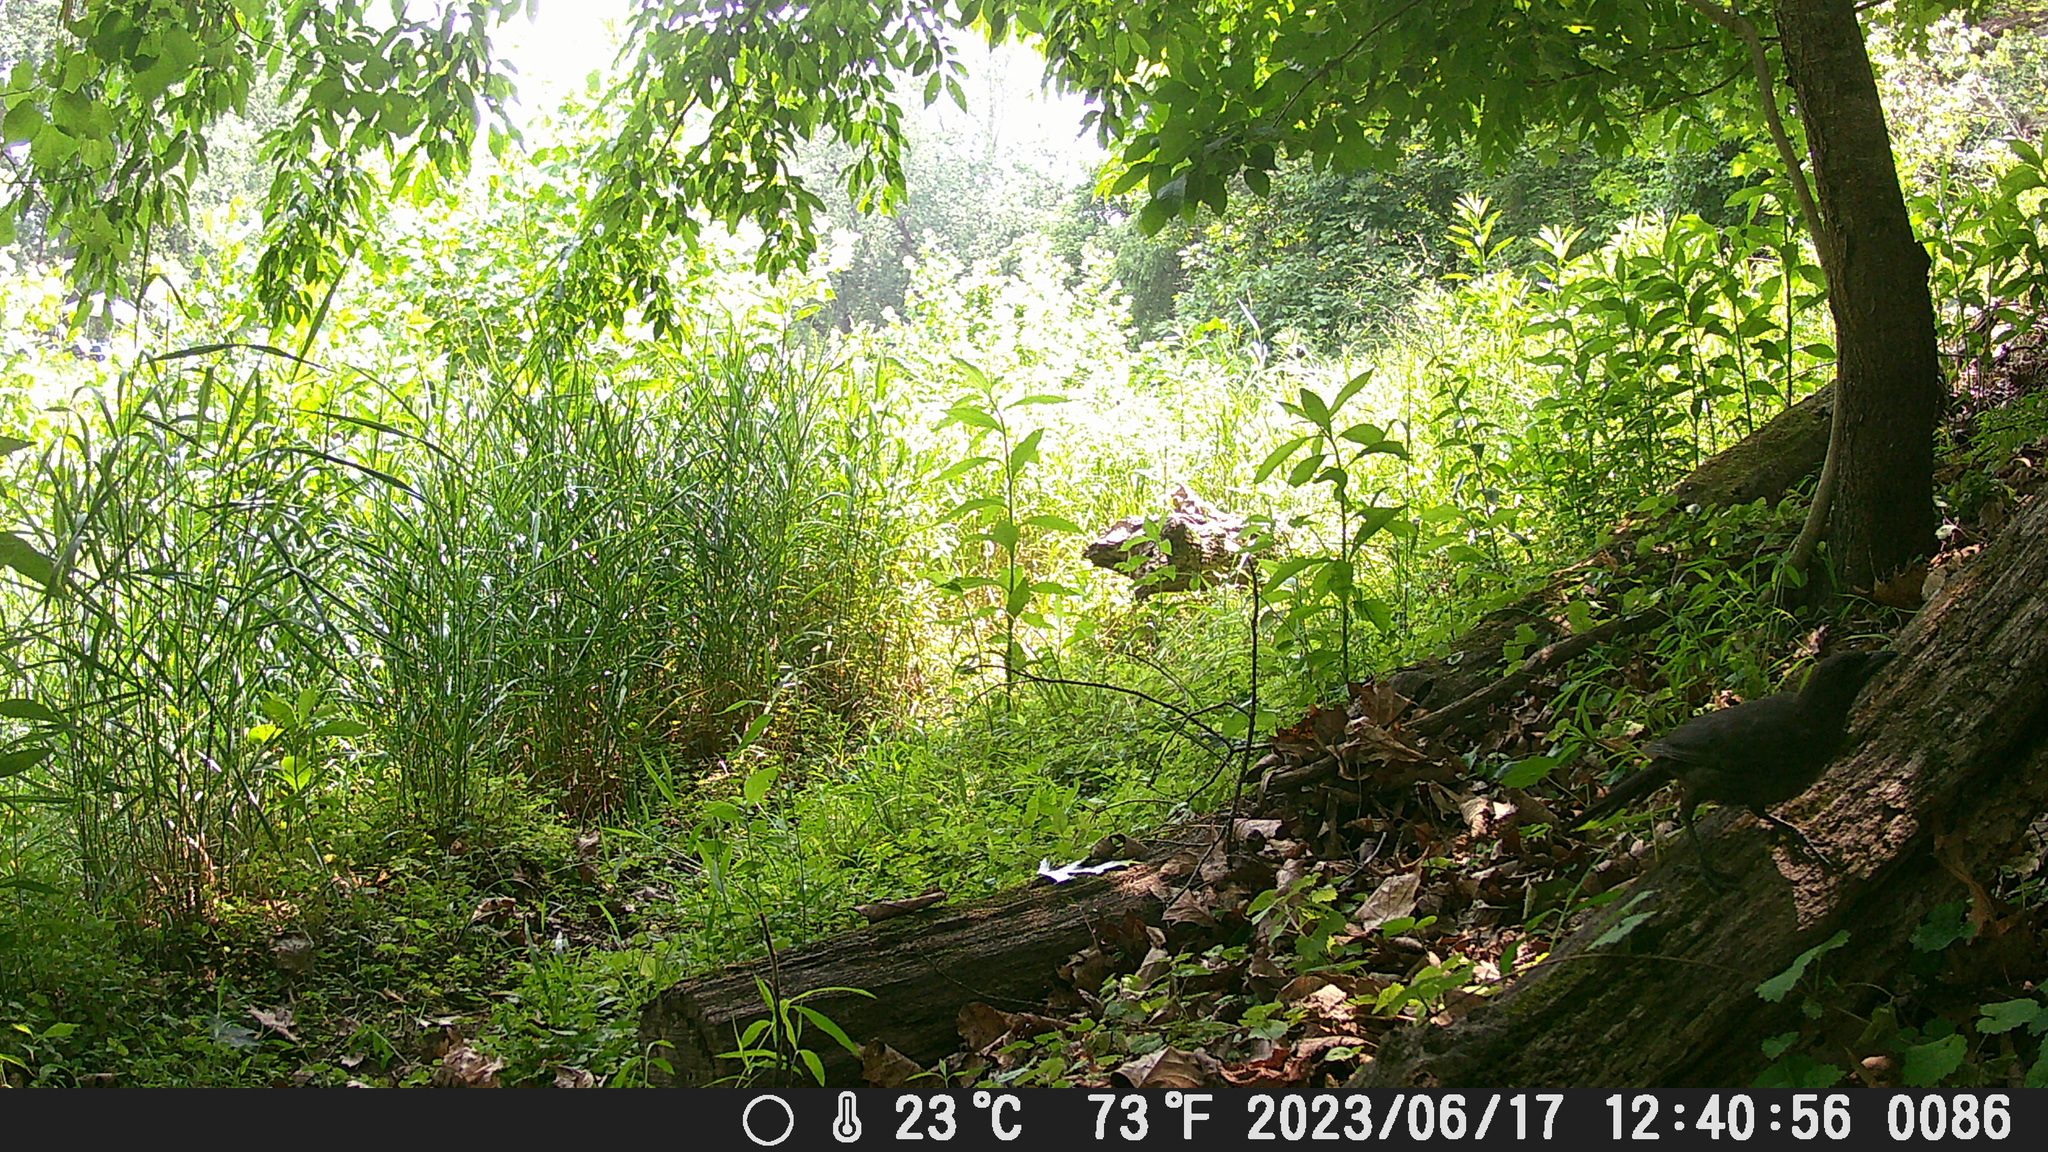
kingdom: Animalia
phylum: Chordata
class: Aves
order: Passeriformes
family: Icteridae
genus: Quiscalus
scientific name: Quiscalus quiscula
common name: Common grackle
